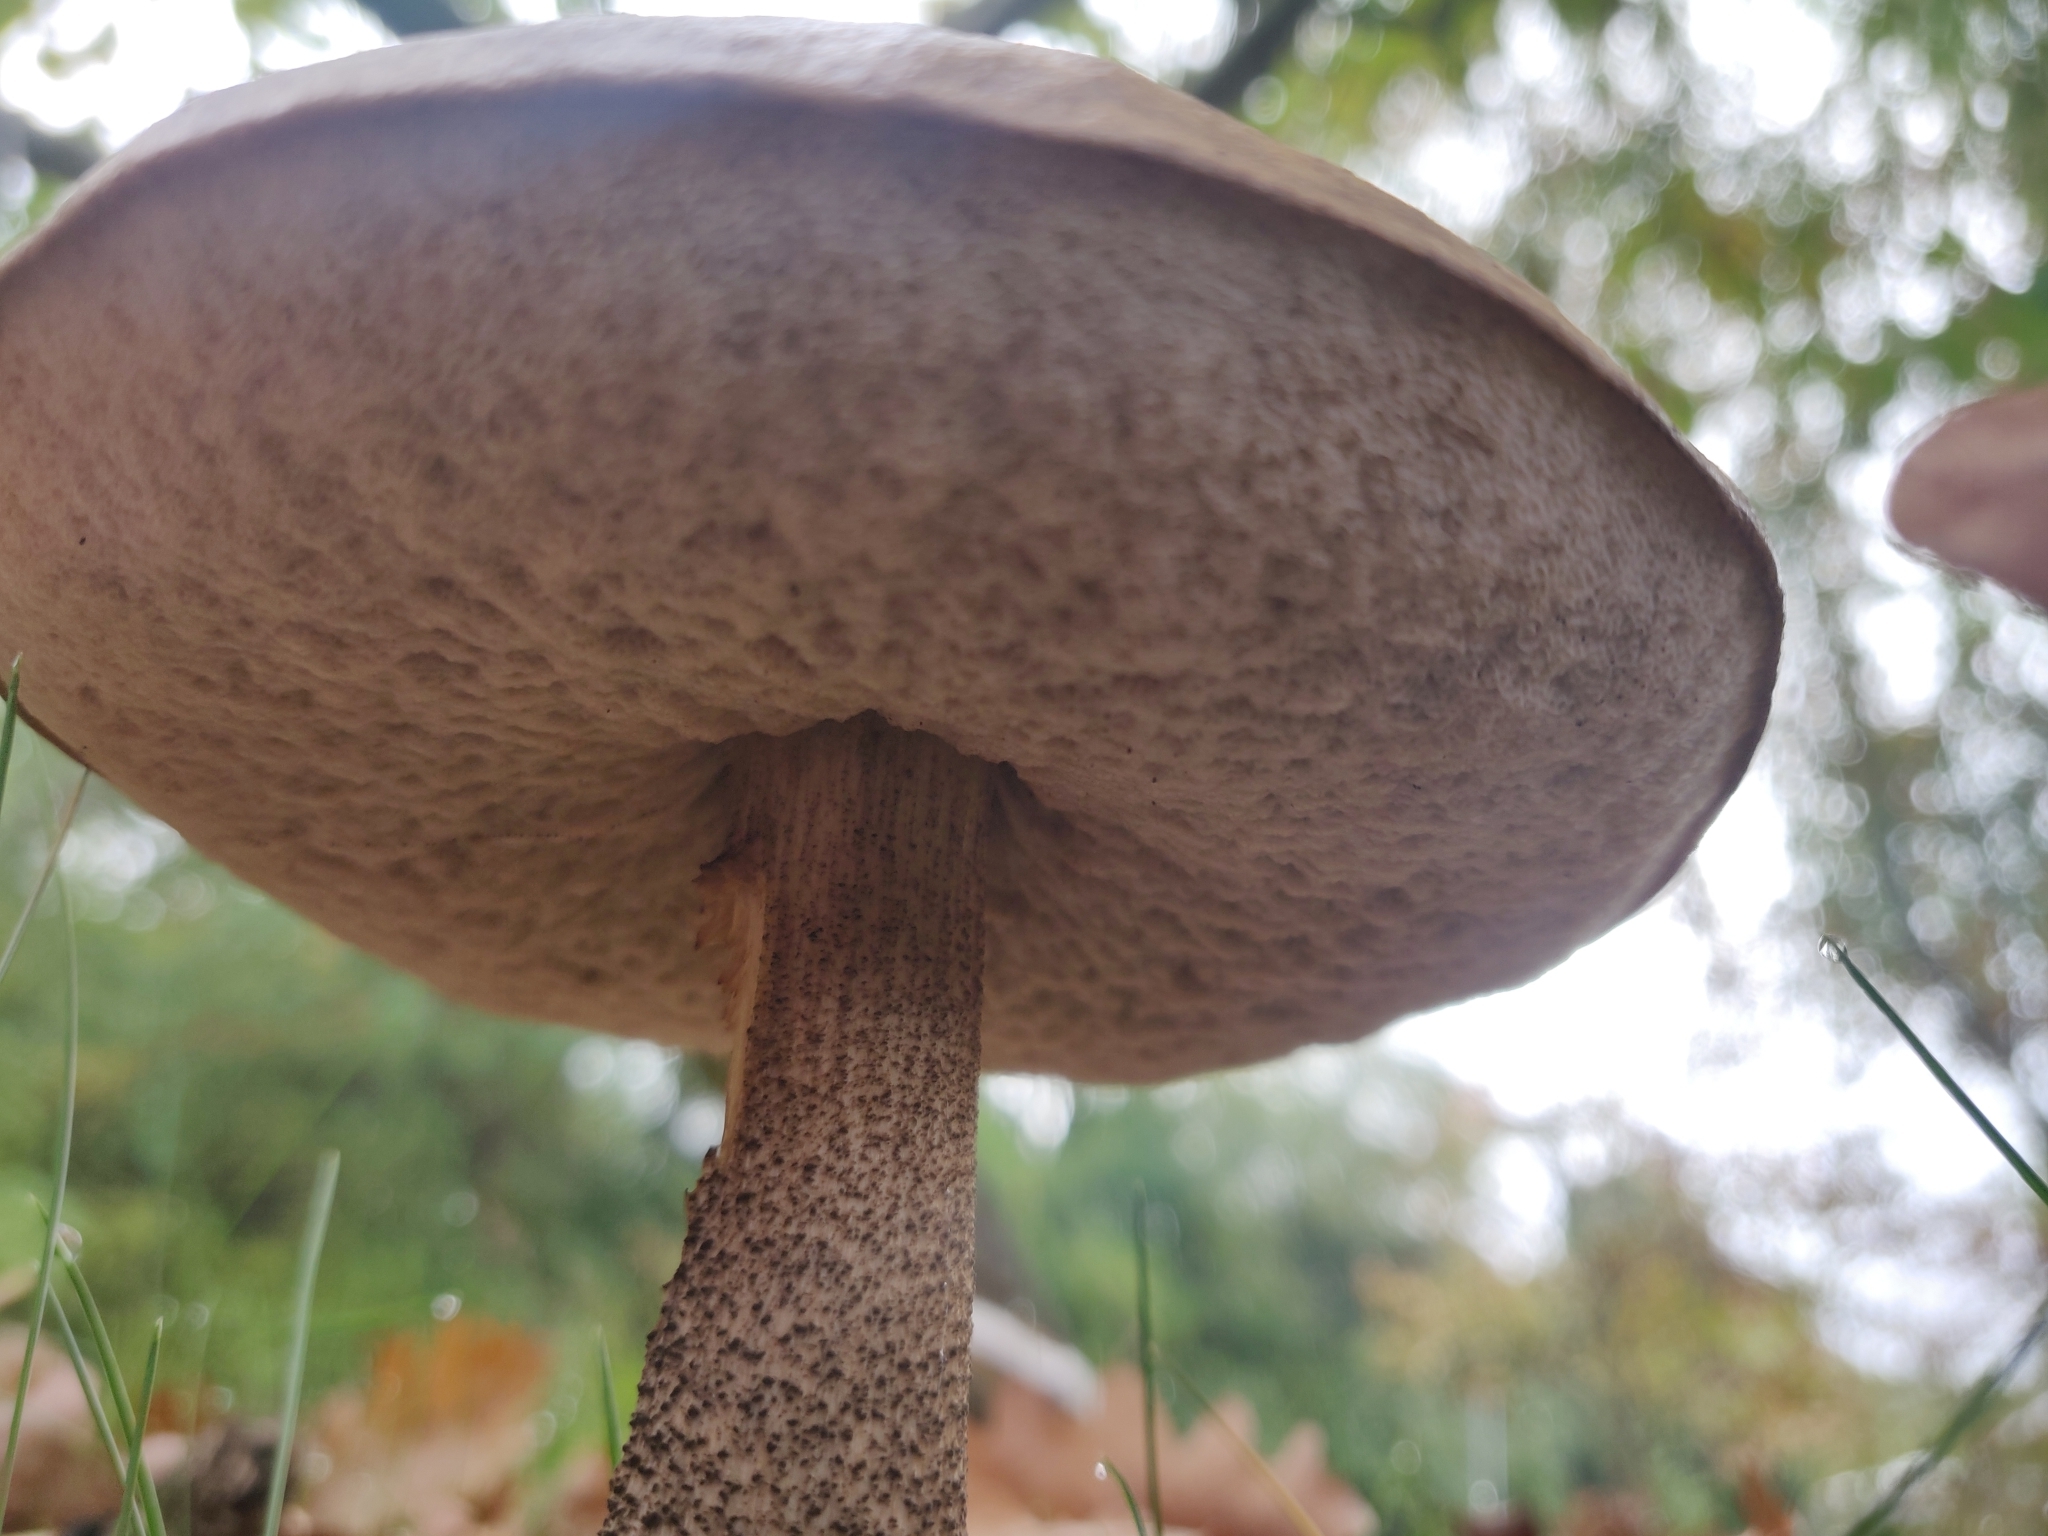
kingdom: Fungi
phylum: Basidiomycota
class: Agaricomycetes
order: Boletales
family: Boletaceae
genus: Leccinum
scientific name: Leccinum scabrum
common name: Blushing bolete
